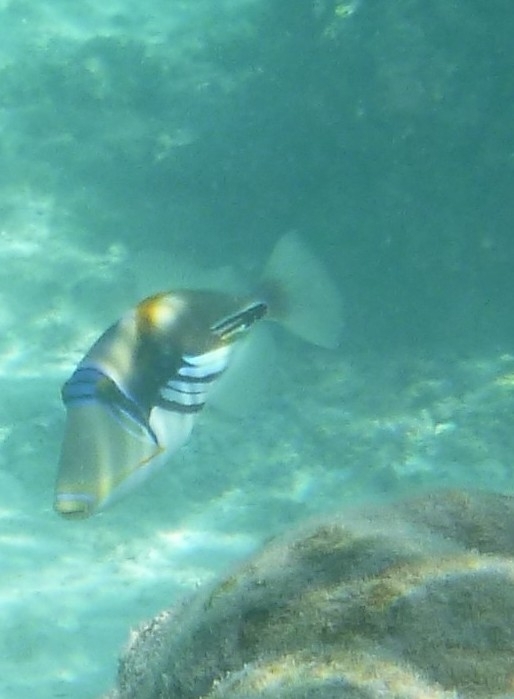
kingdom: Animalia
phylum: Chordata
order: Tetraodontiformes
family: Balistidae
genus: Rhinecanthus
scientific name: Rhinecanthus aculeatus
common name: White-banded triggerfish
